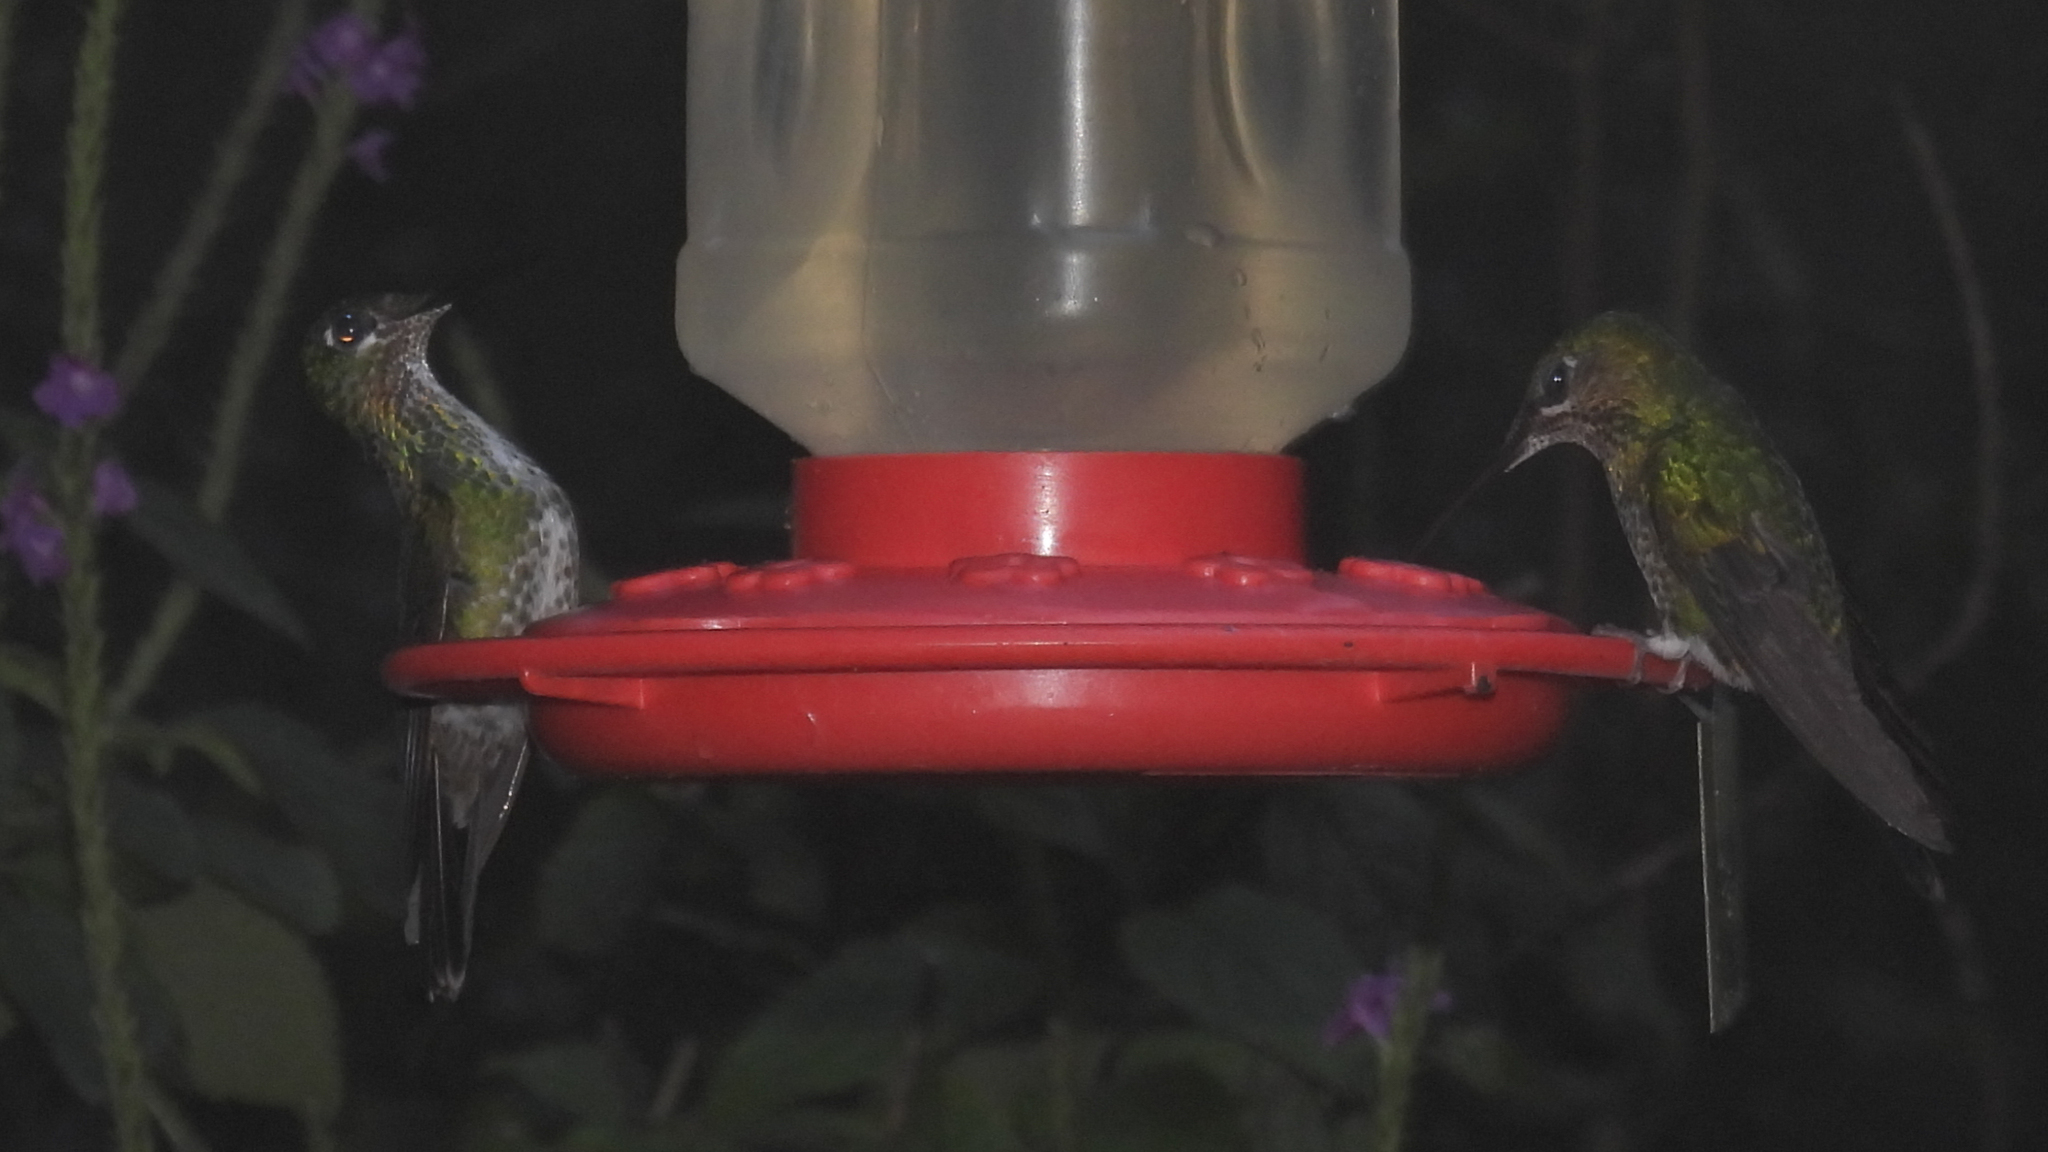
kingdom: Animalia
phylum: Chordata
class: Aves
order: Apodiformes
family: Trochilidae
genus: Heliodoxa
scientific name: Heliodoxa jacula
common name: Green-crowned brilliant
